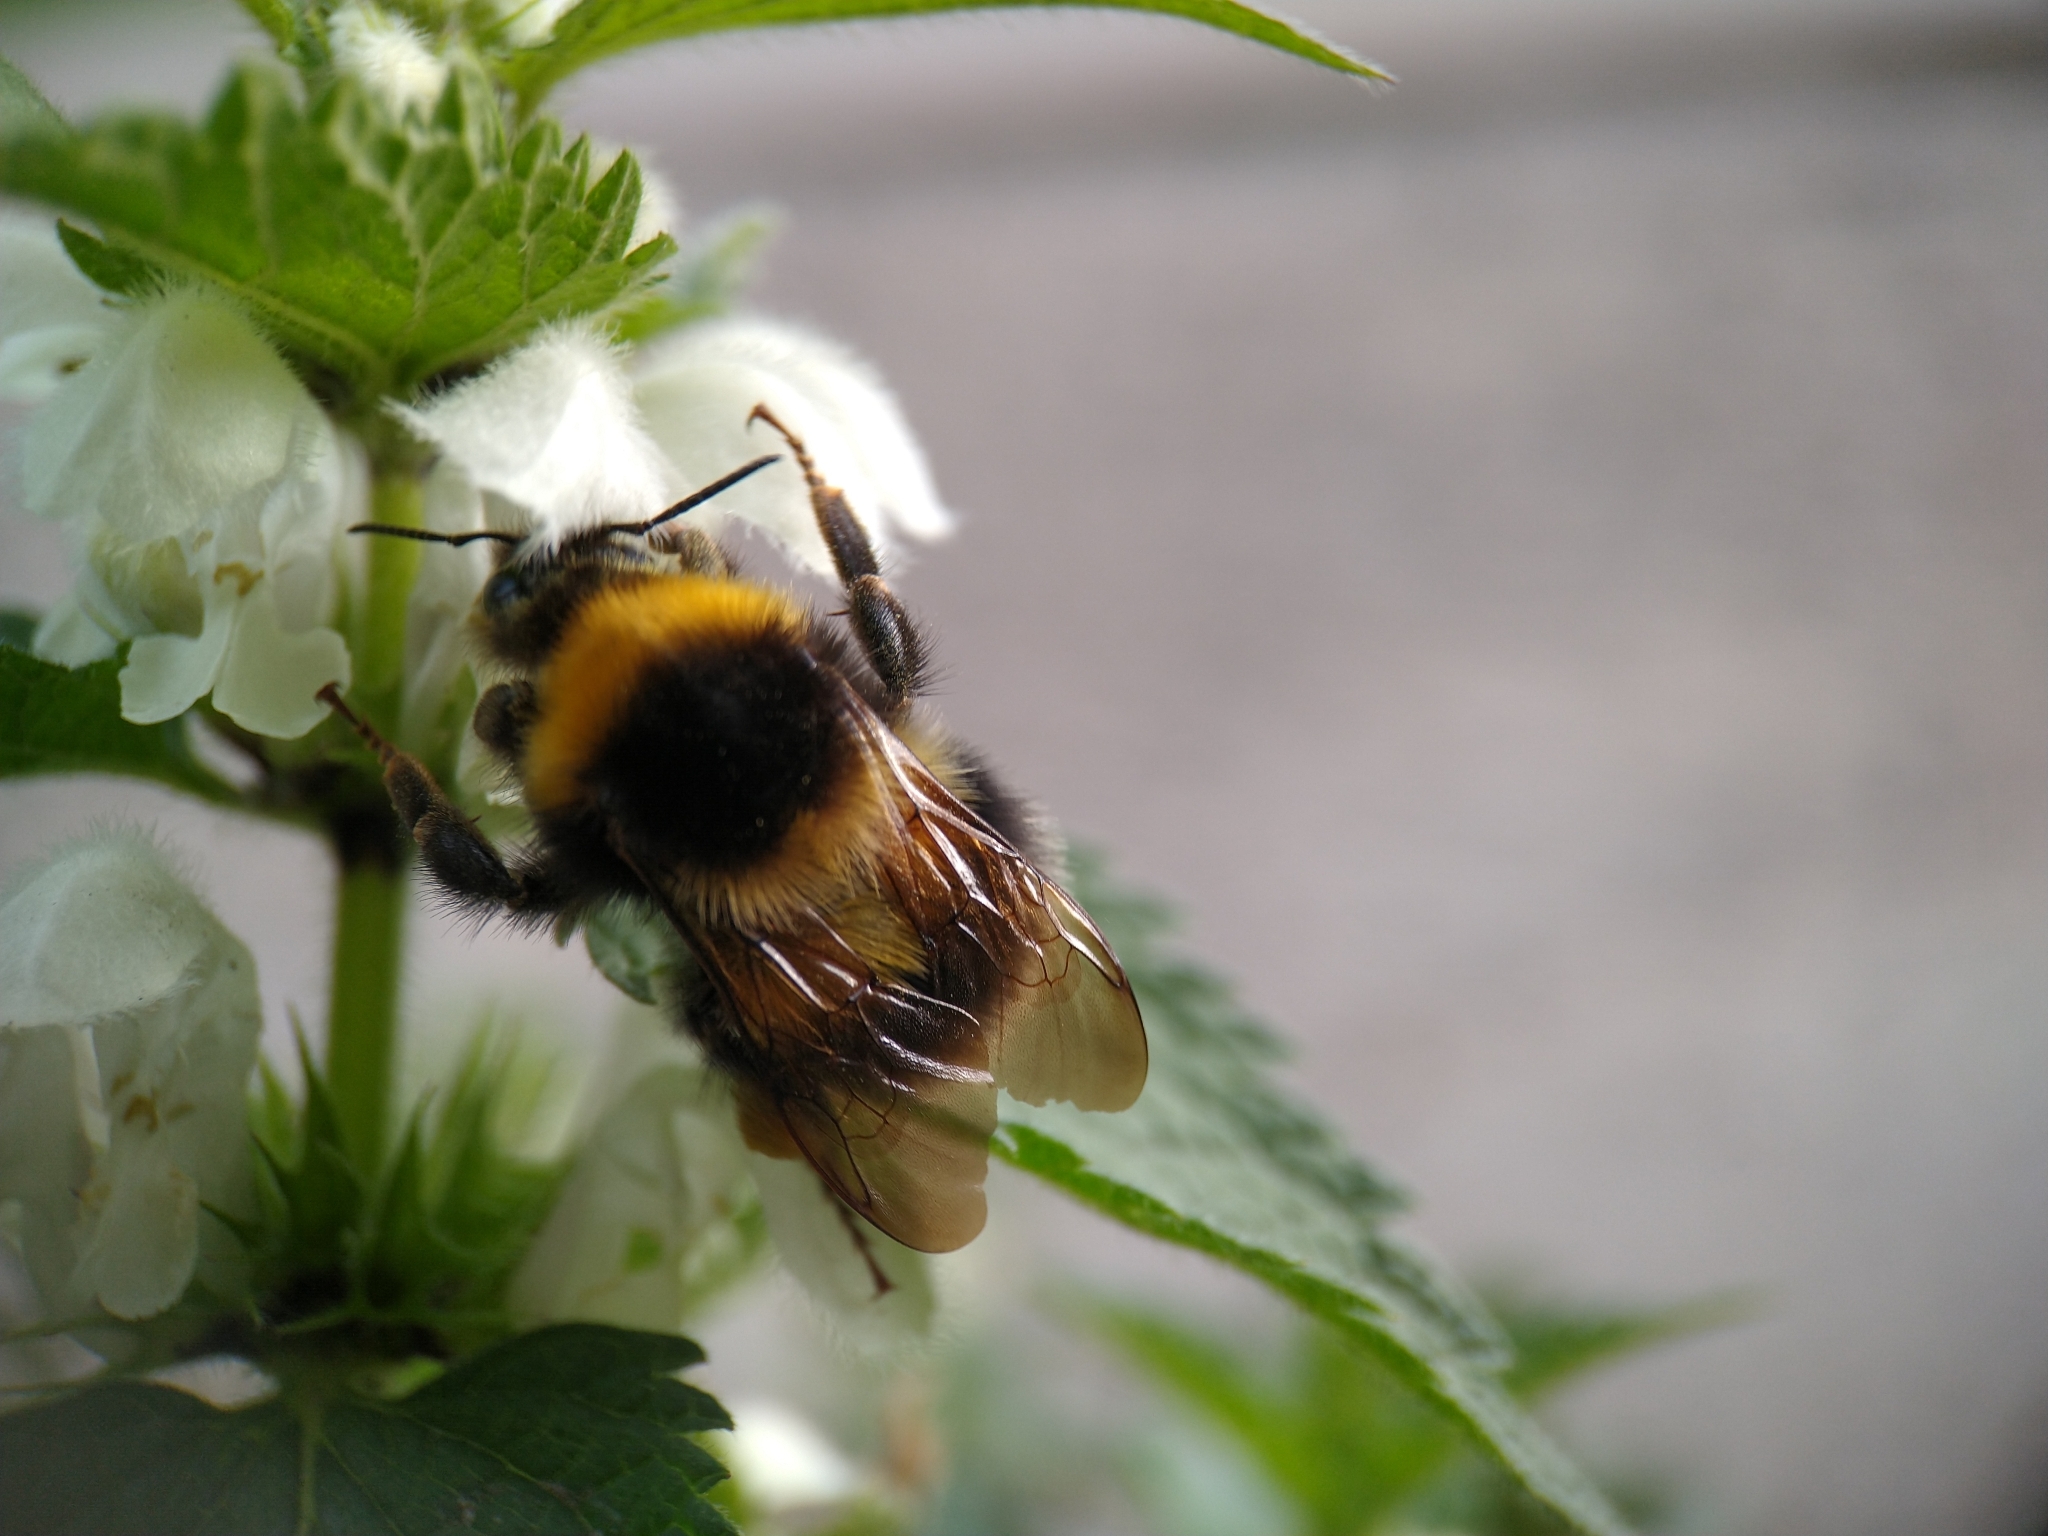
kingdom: Animalia
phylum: Arthropoda
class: Insecta
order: Hymenoptera
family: Apidae
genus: Bombus
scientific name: Bombus hortorum
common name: Garden bumblebee
